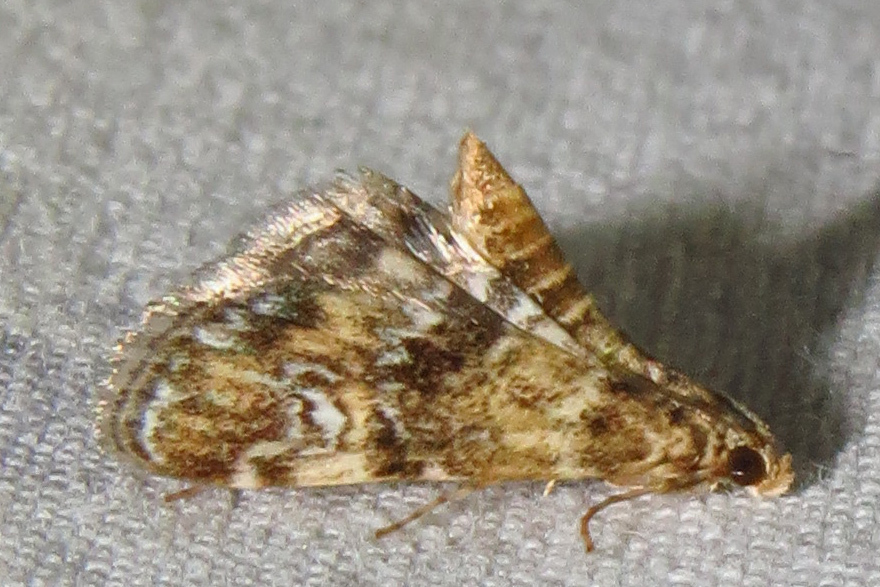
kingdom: Animalia
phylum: Arthropoda
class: Insecta
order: Lepidoptera
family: Crambidae
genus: Elophila
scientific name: Elophila obliteralis
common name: Waterlily leafcutter moth
